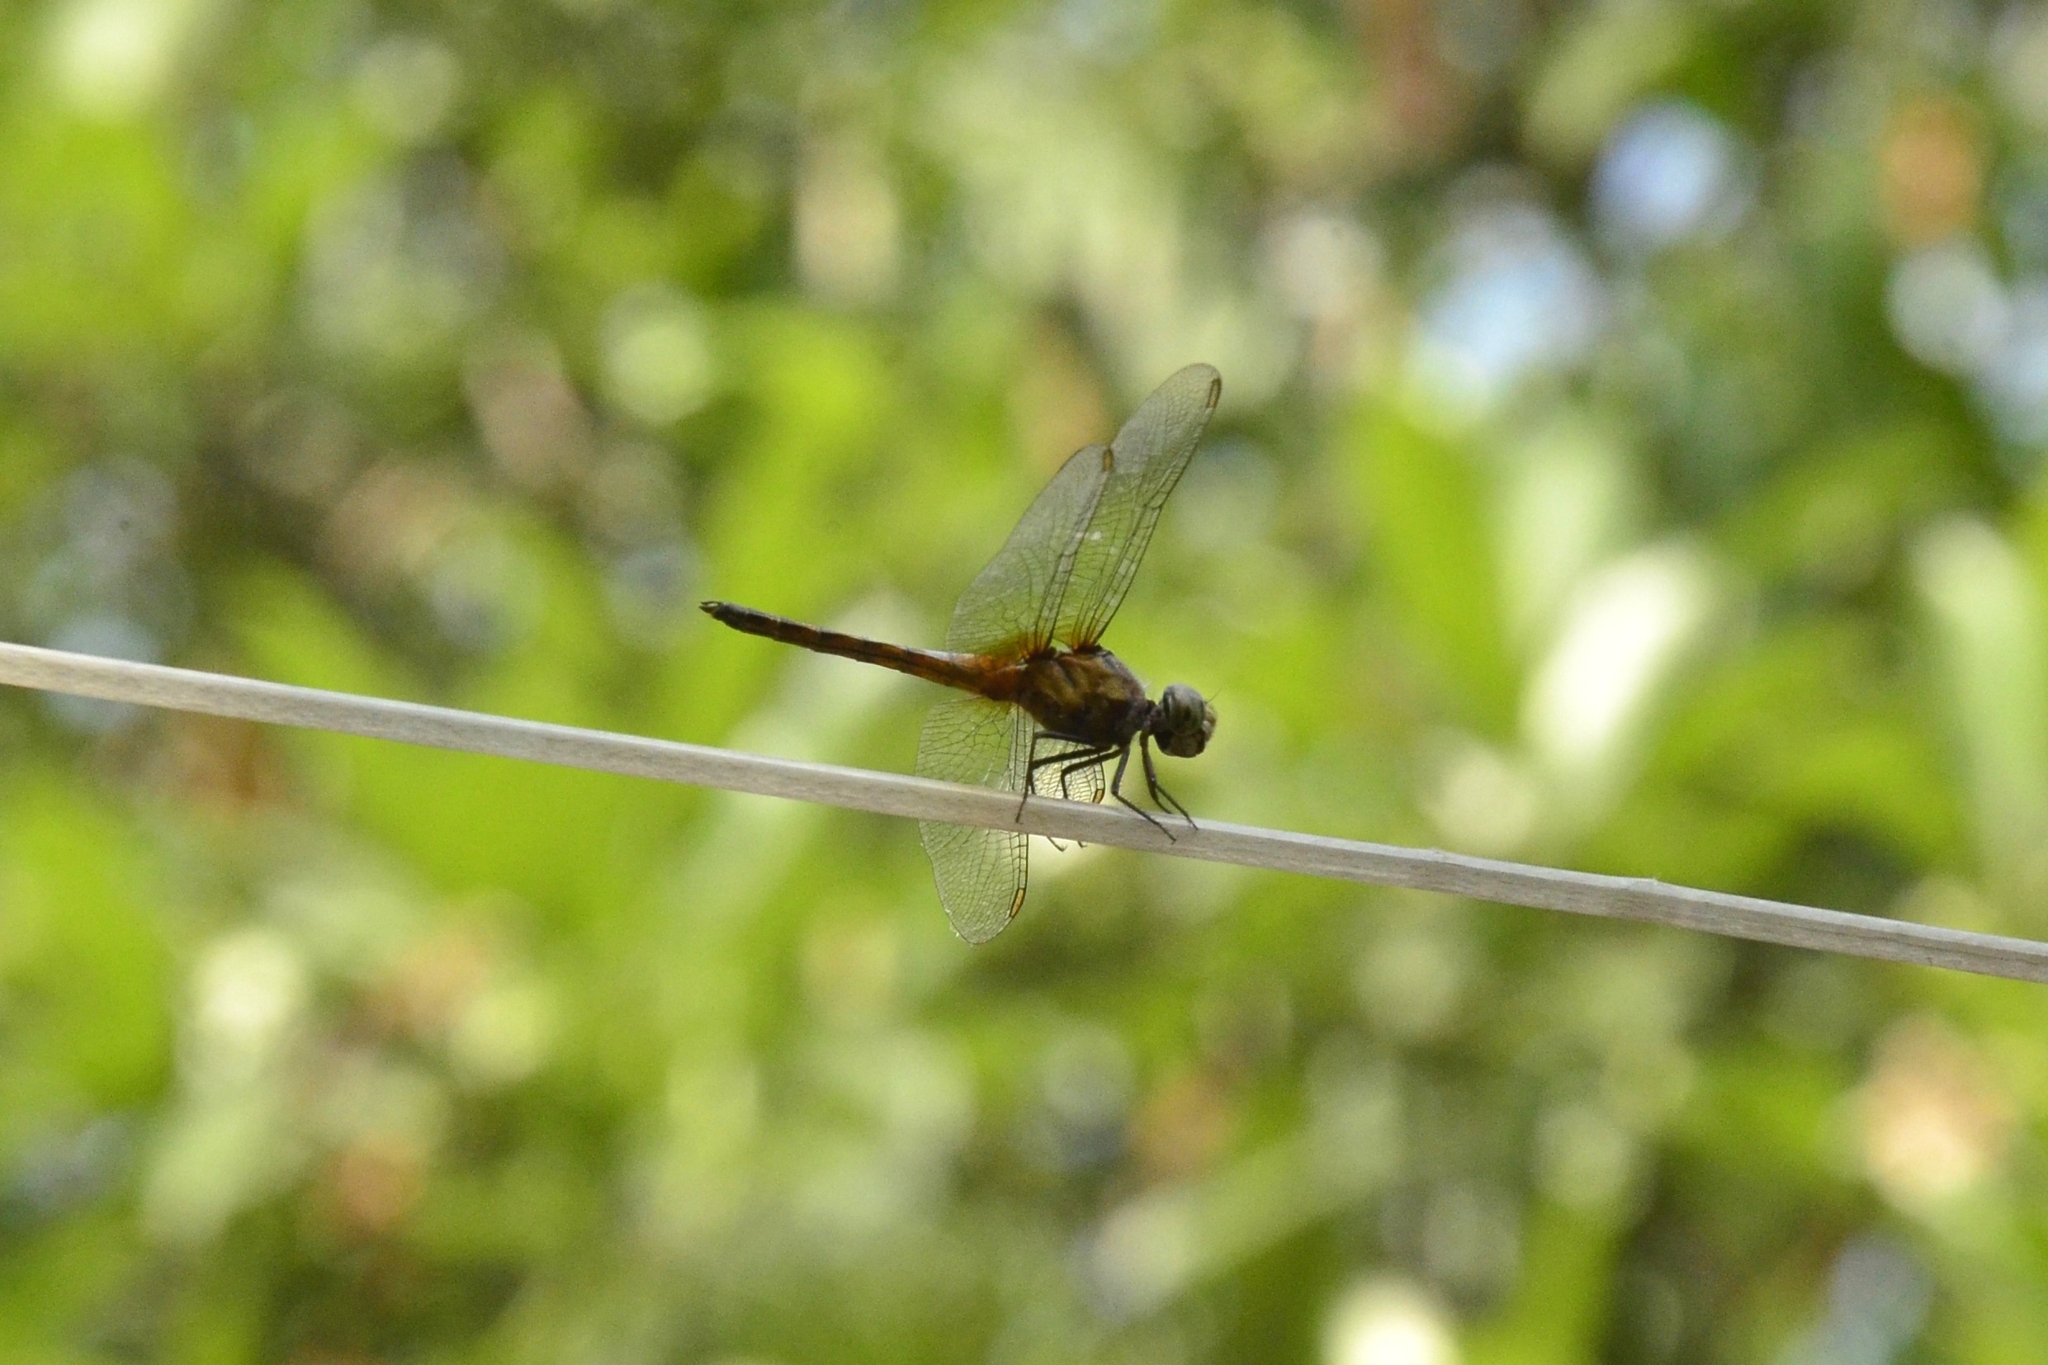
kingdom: Animalia
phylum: Arthropoda
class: Insecta
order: Odonata
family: Libellulidae
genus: Brachydiplax
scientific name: Brachydiplax chalybea
